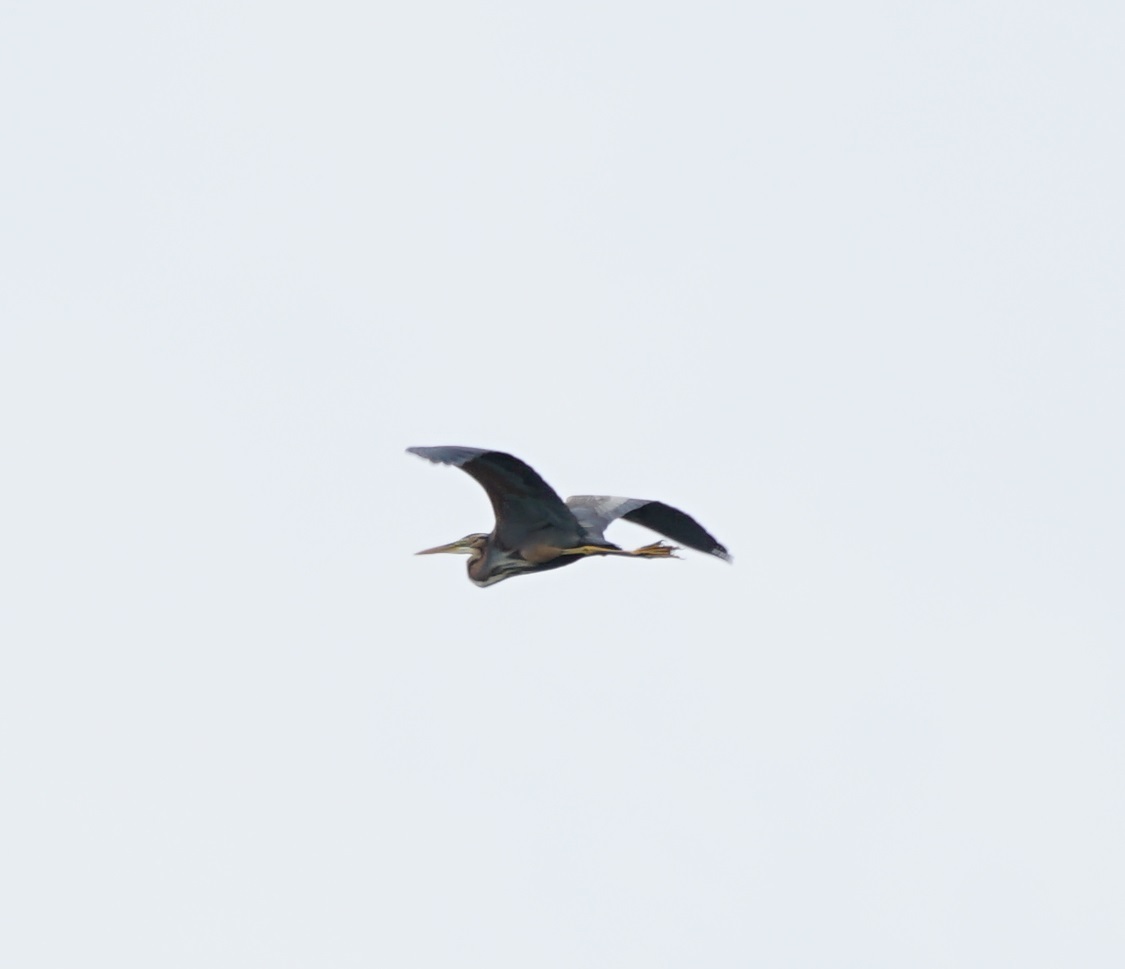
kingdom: Animalia
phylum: Chordata
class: Aves
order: Pelecaniformes
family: Ardeidae
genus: Ardea
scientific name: Ardea purpurea
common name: Purple heron
